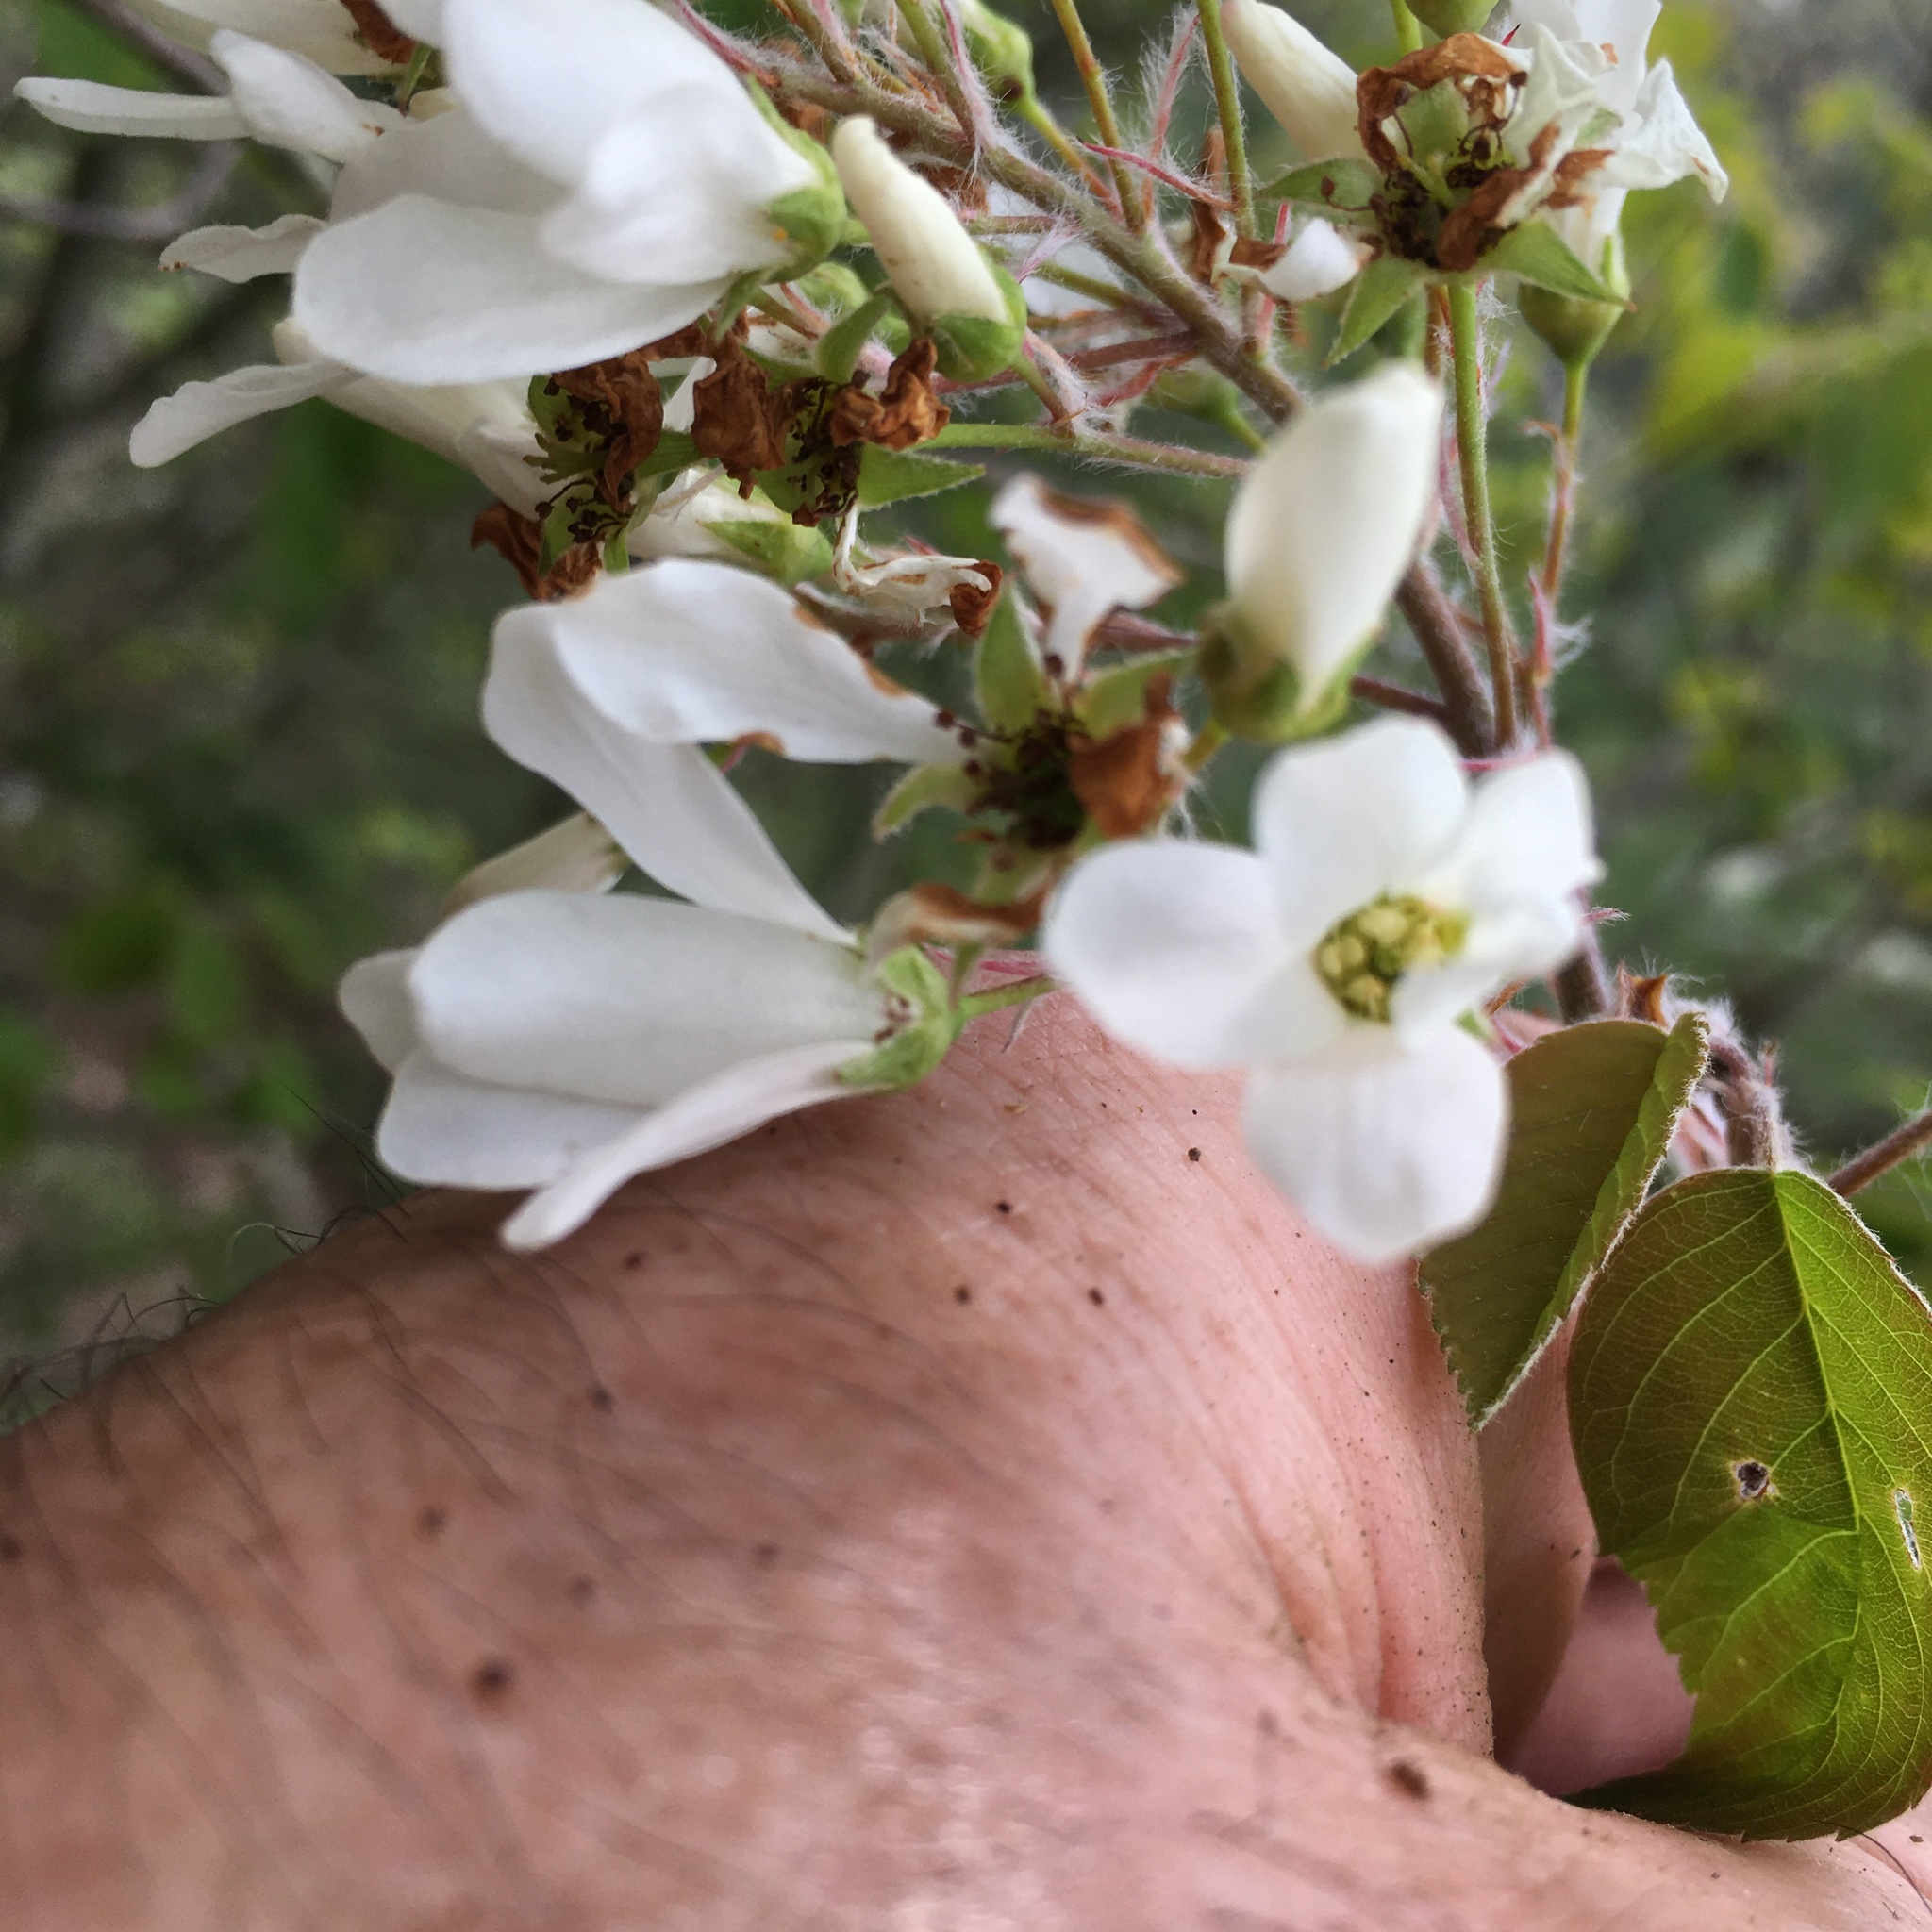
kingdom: Plantae
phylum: Tracheophyta
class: Magnoliopsida
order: Rosales
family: Rosaceae
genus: Amelanchier
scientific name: Amelanchier sanguinea
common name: Huron serviceberry
